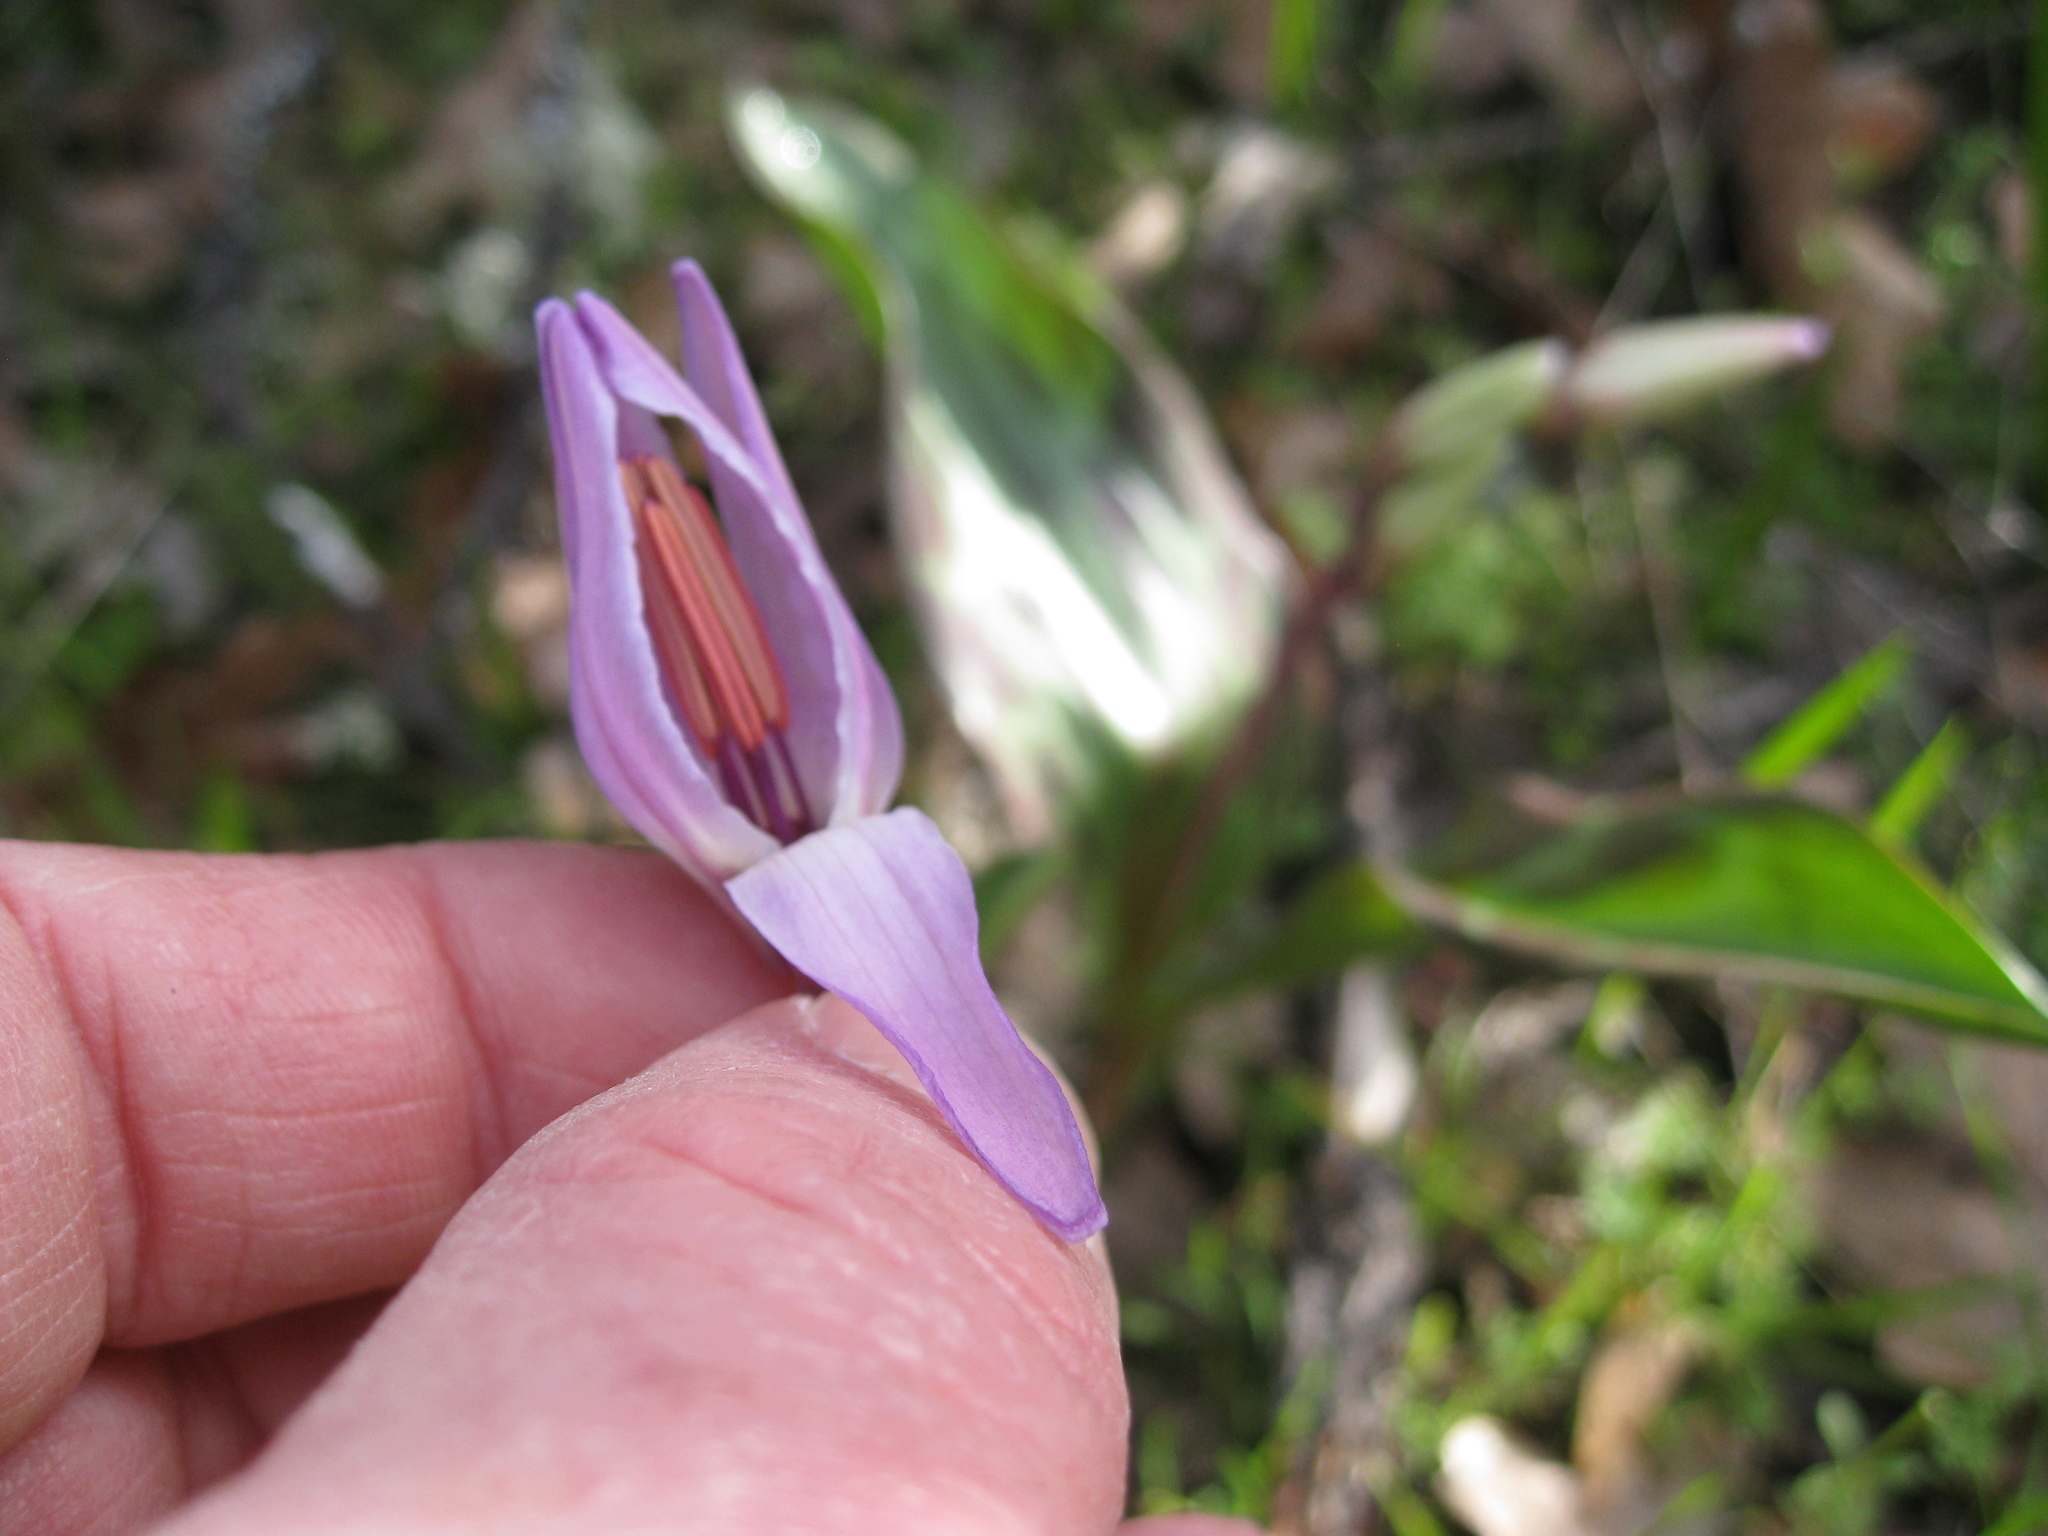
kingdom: Plantae
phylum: Tracheophyta
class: Liliopsida
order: Liliales
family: Liliaceae
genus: Erythronium
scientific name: Erythronium hendersonii
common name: Henderson's fawn-lily
